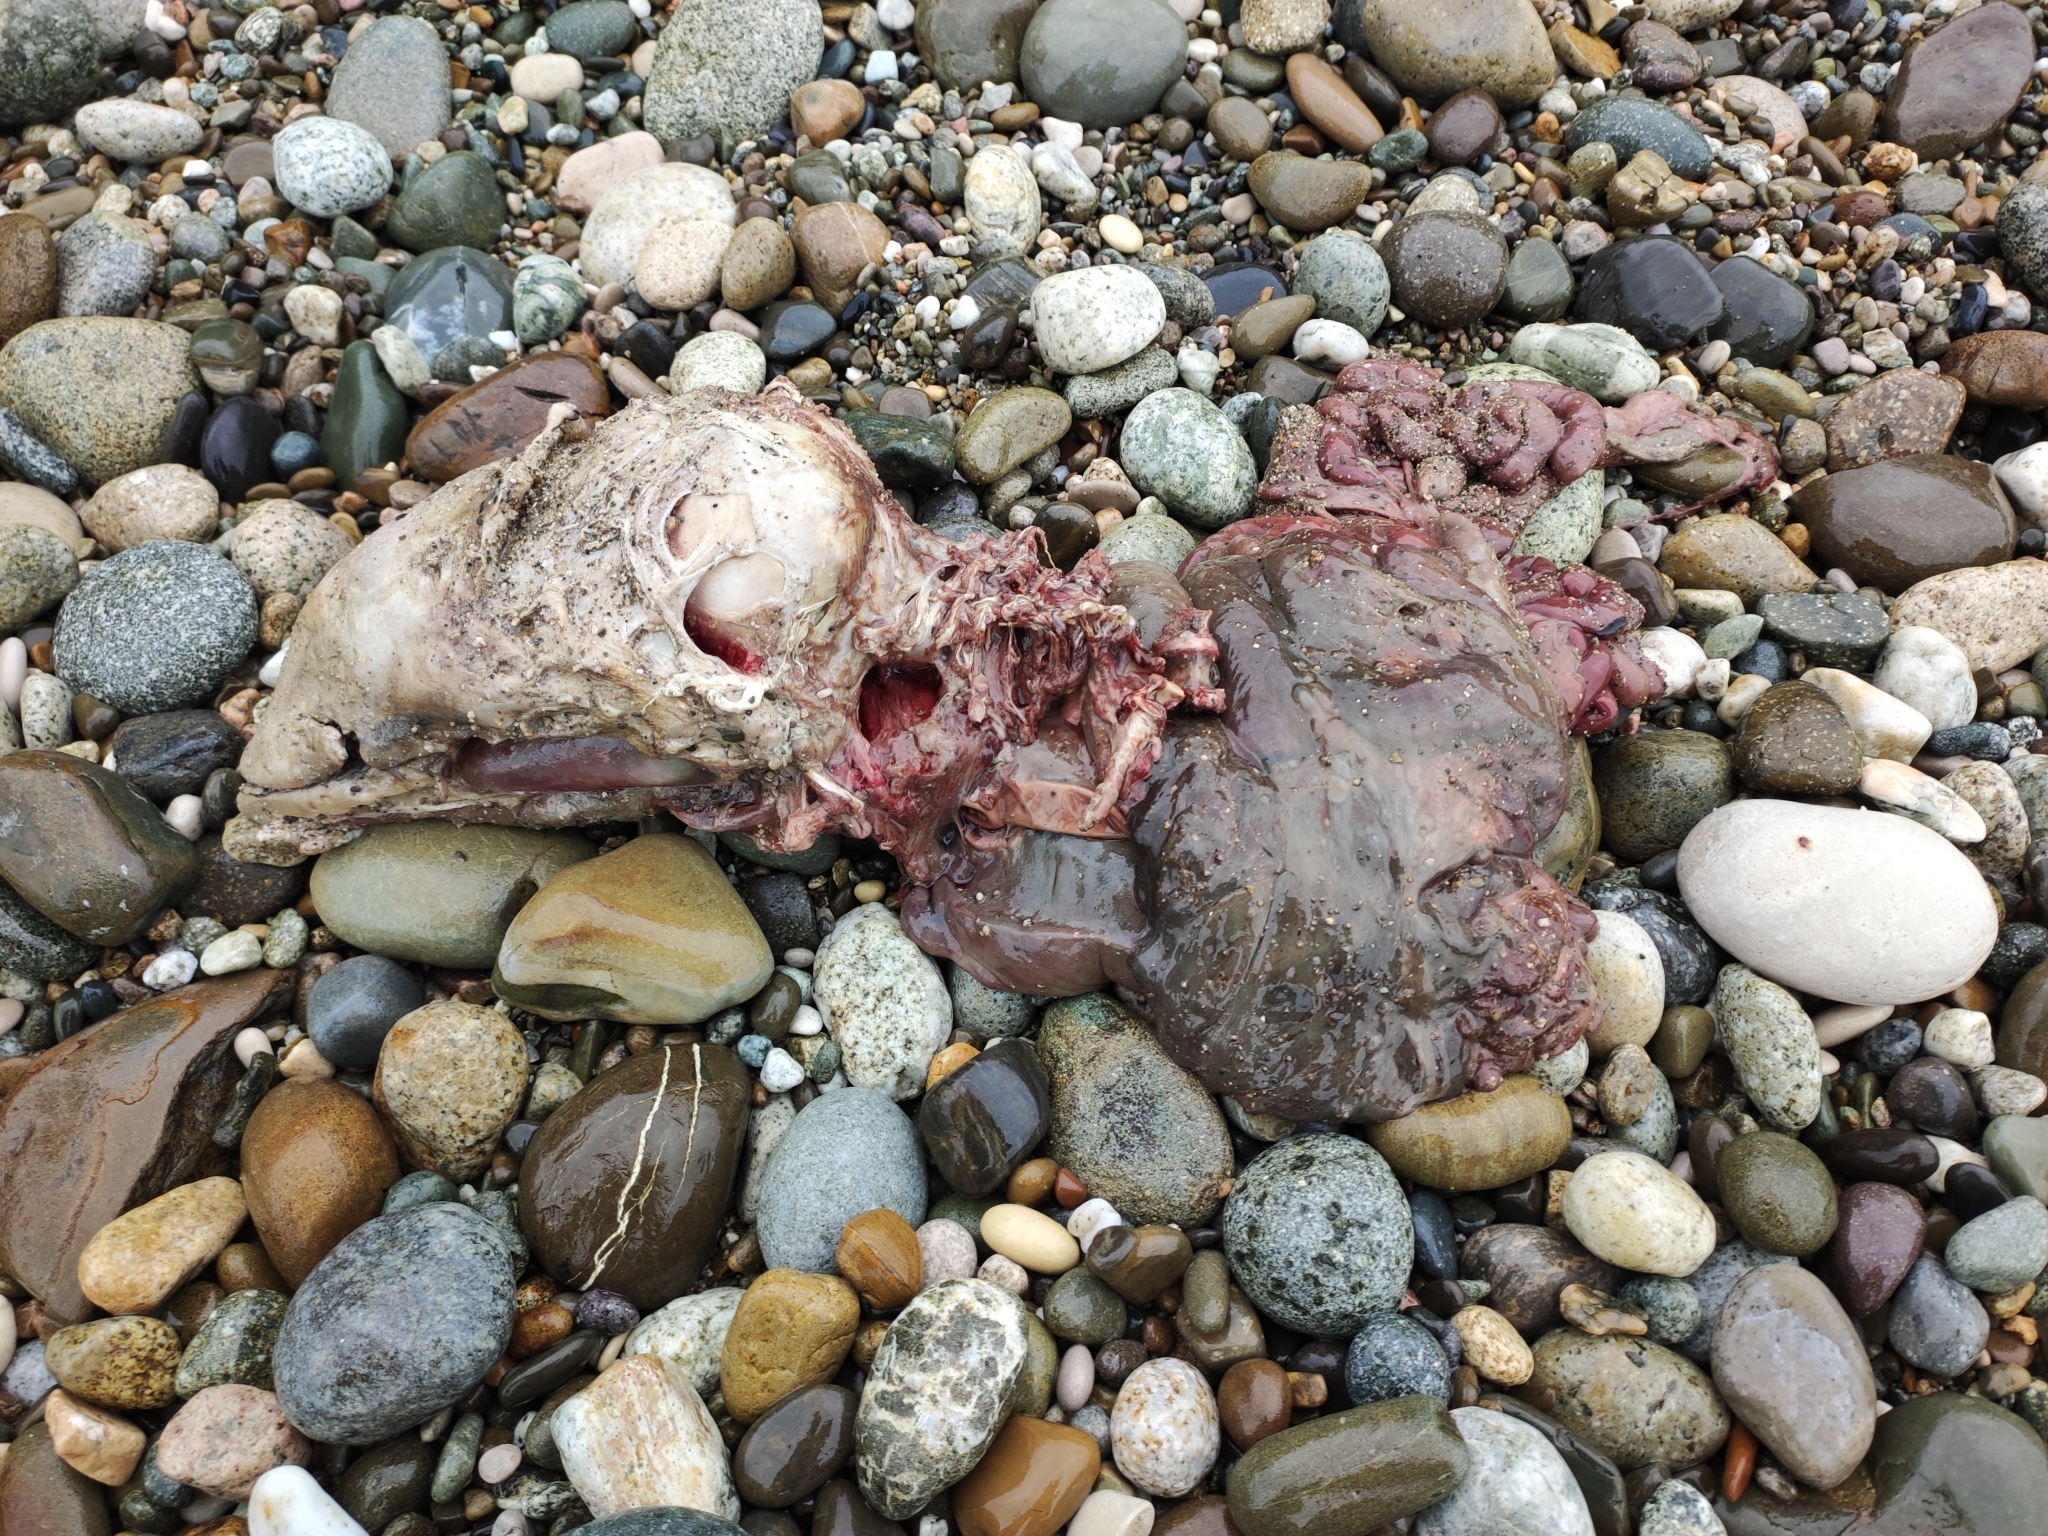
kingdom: Animalia
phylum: Chordata
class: Mammalia
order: Cetacea
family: Phocoenidae
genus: Phocoena
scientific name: Phocoena phocoena
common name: Harbor porpoise
